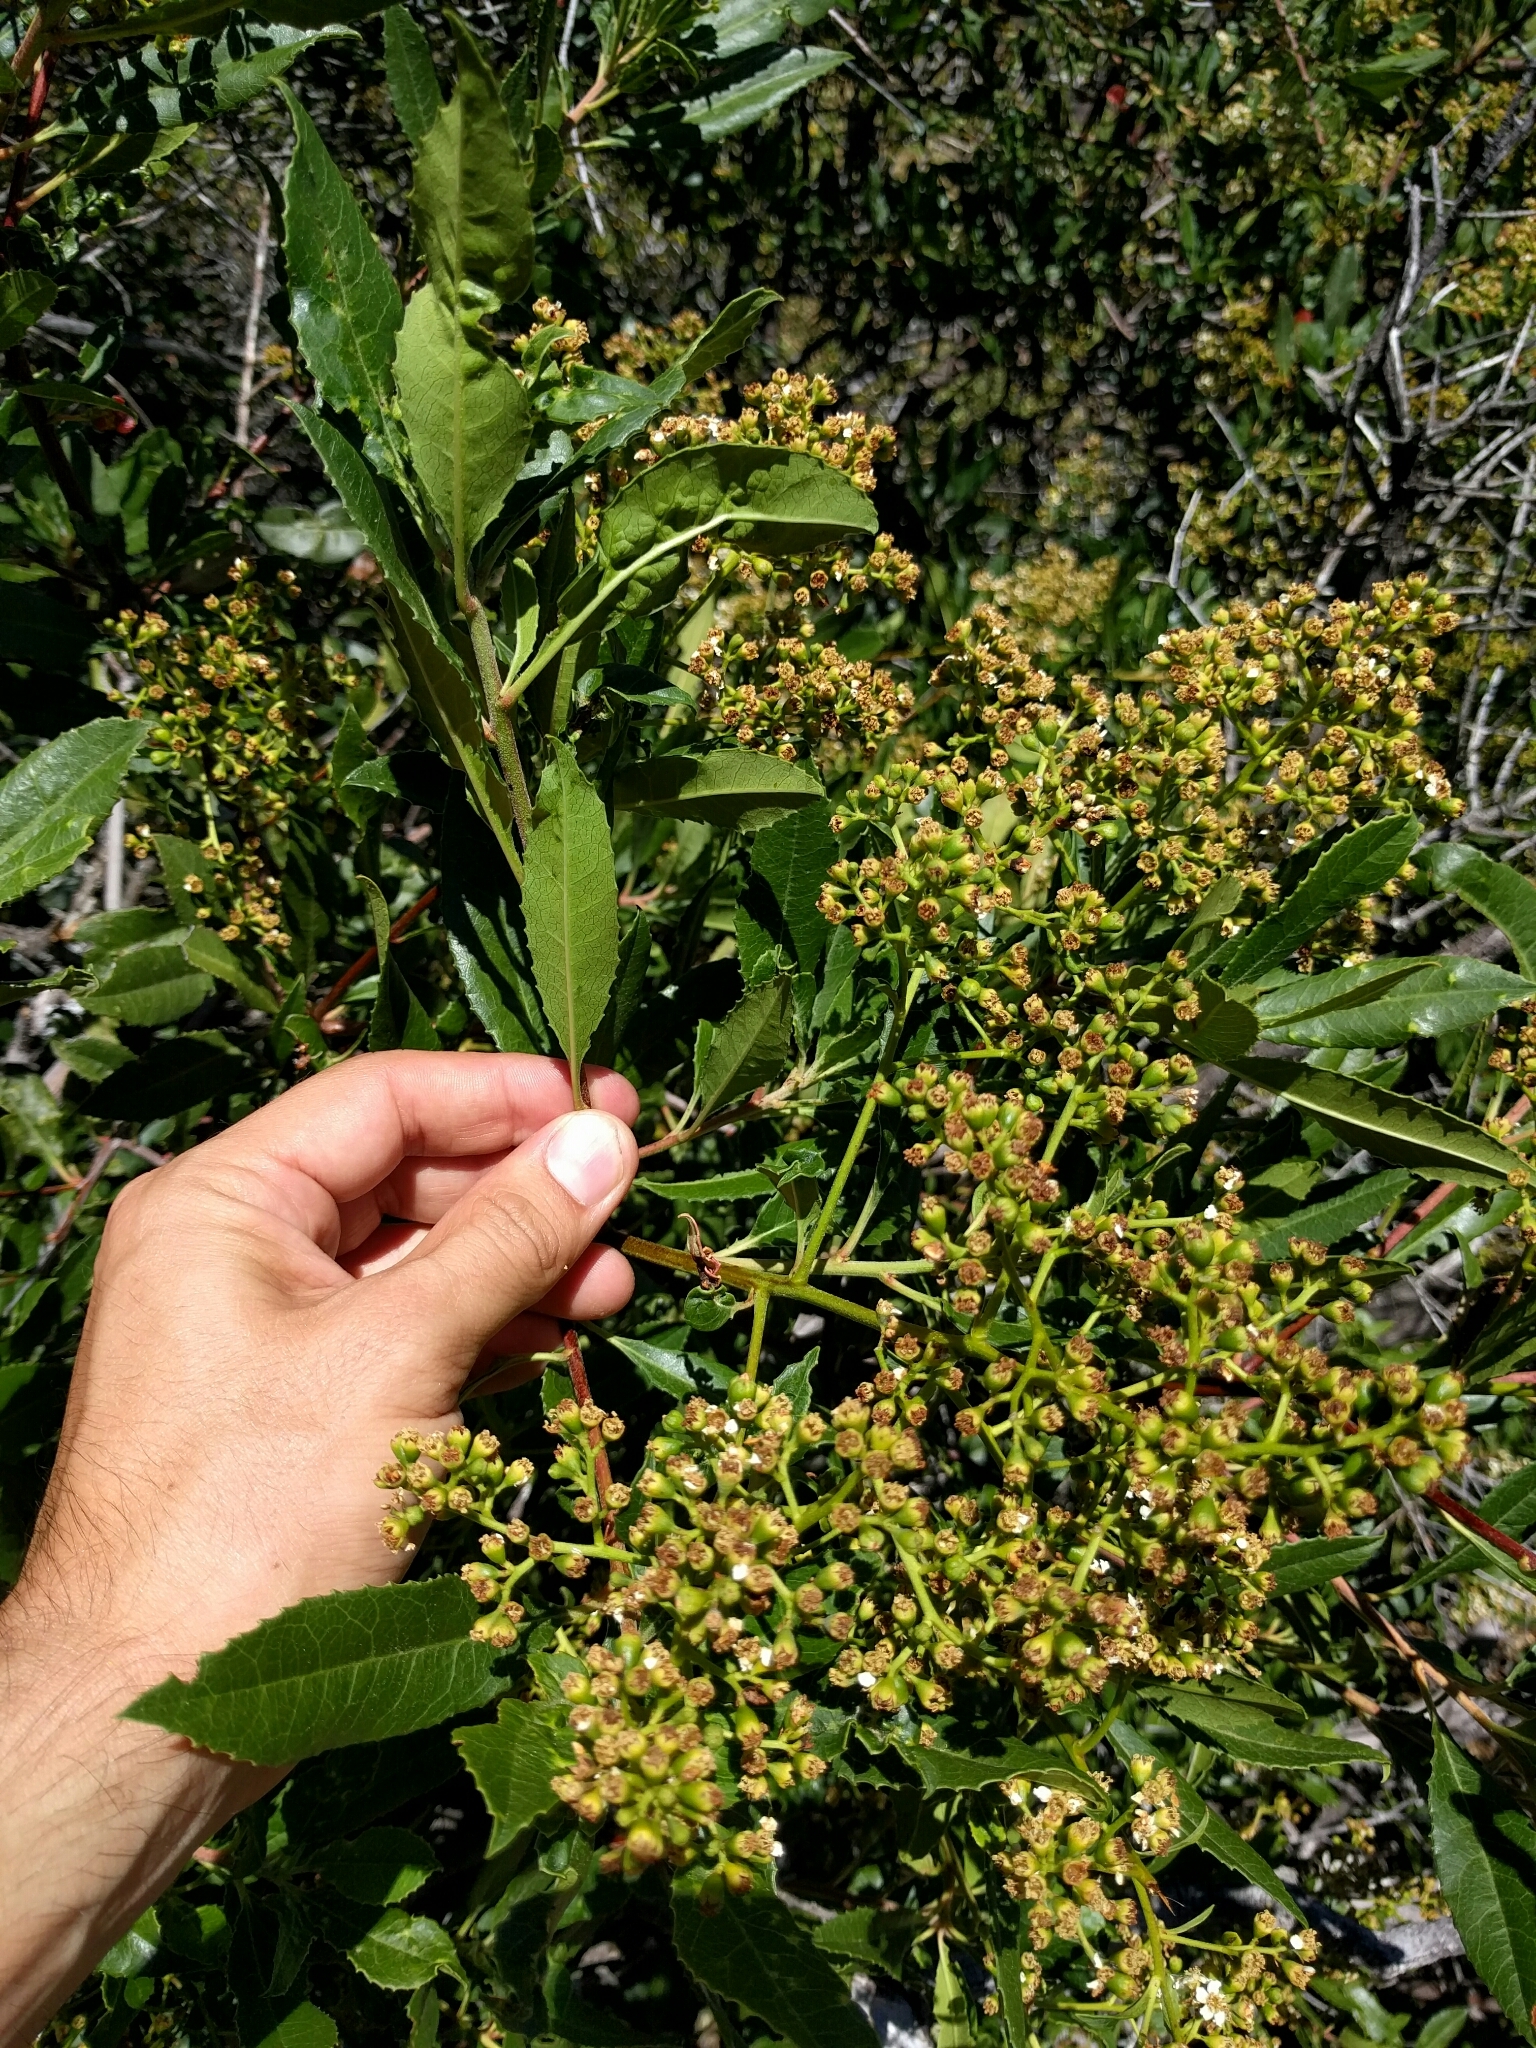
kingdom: Plantae
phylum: Tracheophyta
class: Magnoliopsida
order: Rosales
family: Rosaceae
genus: Heteromeles
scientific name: Heteromeles arbutifolia
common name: California-holly
